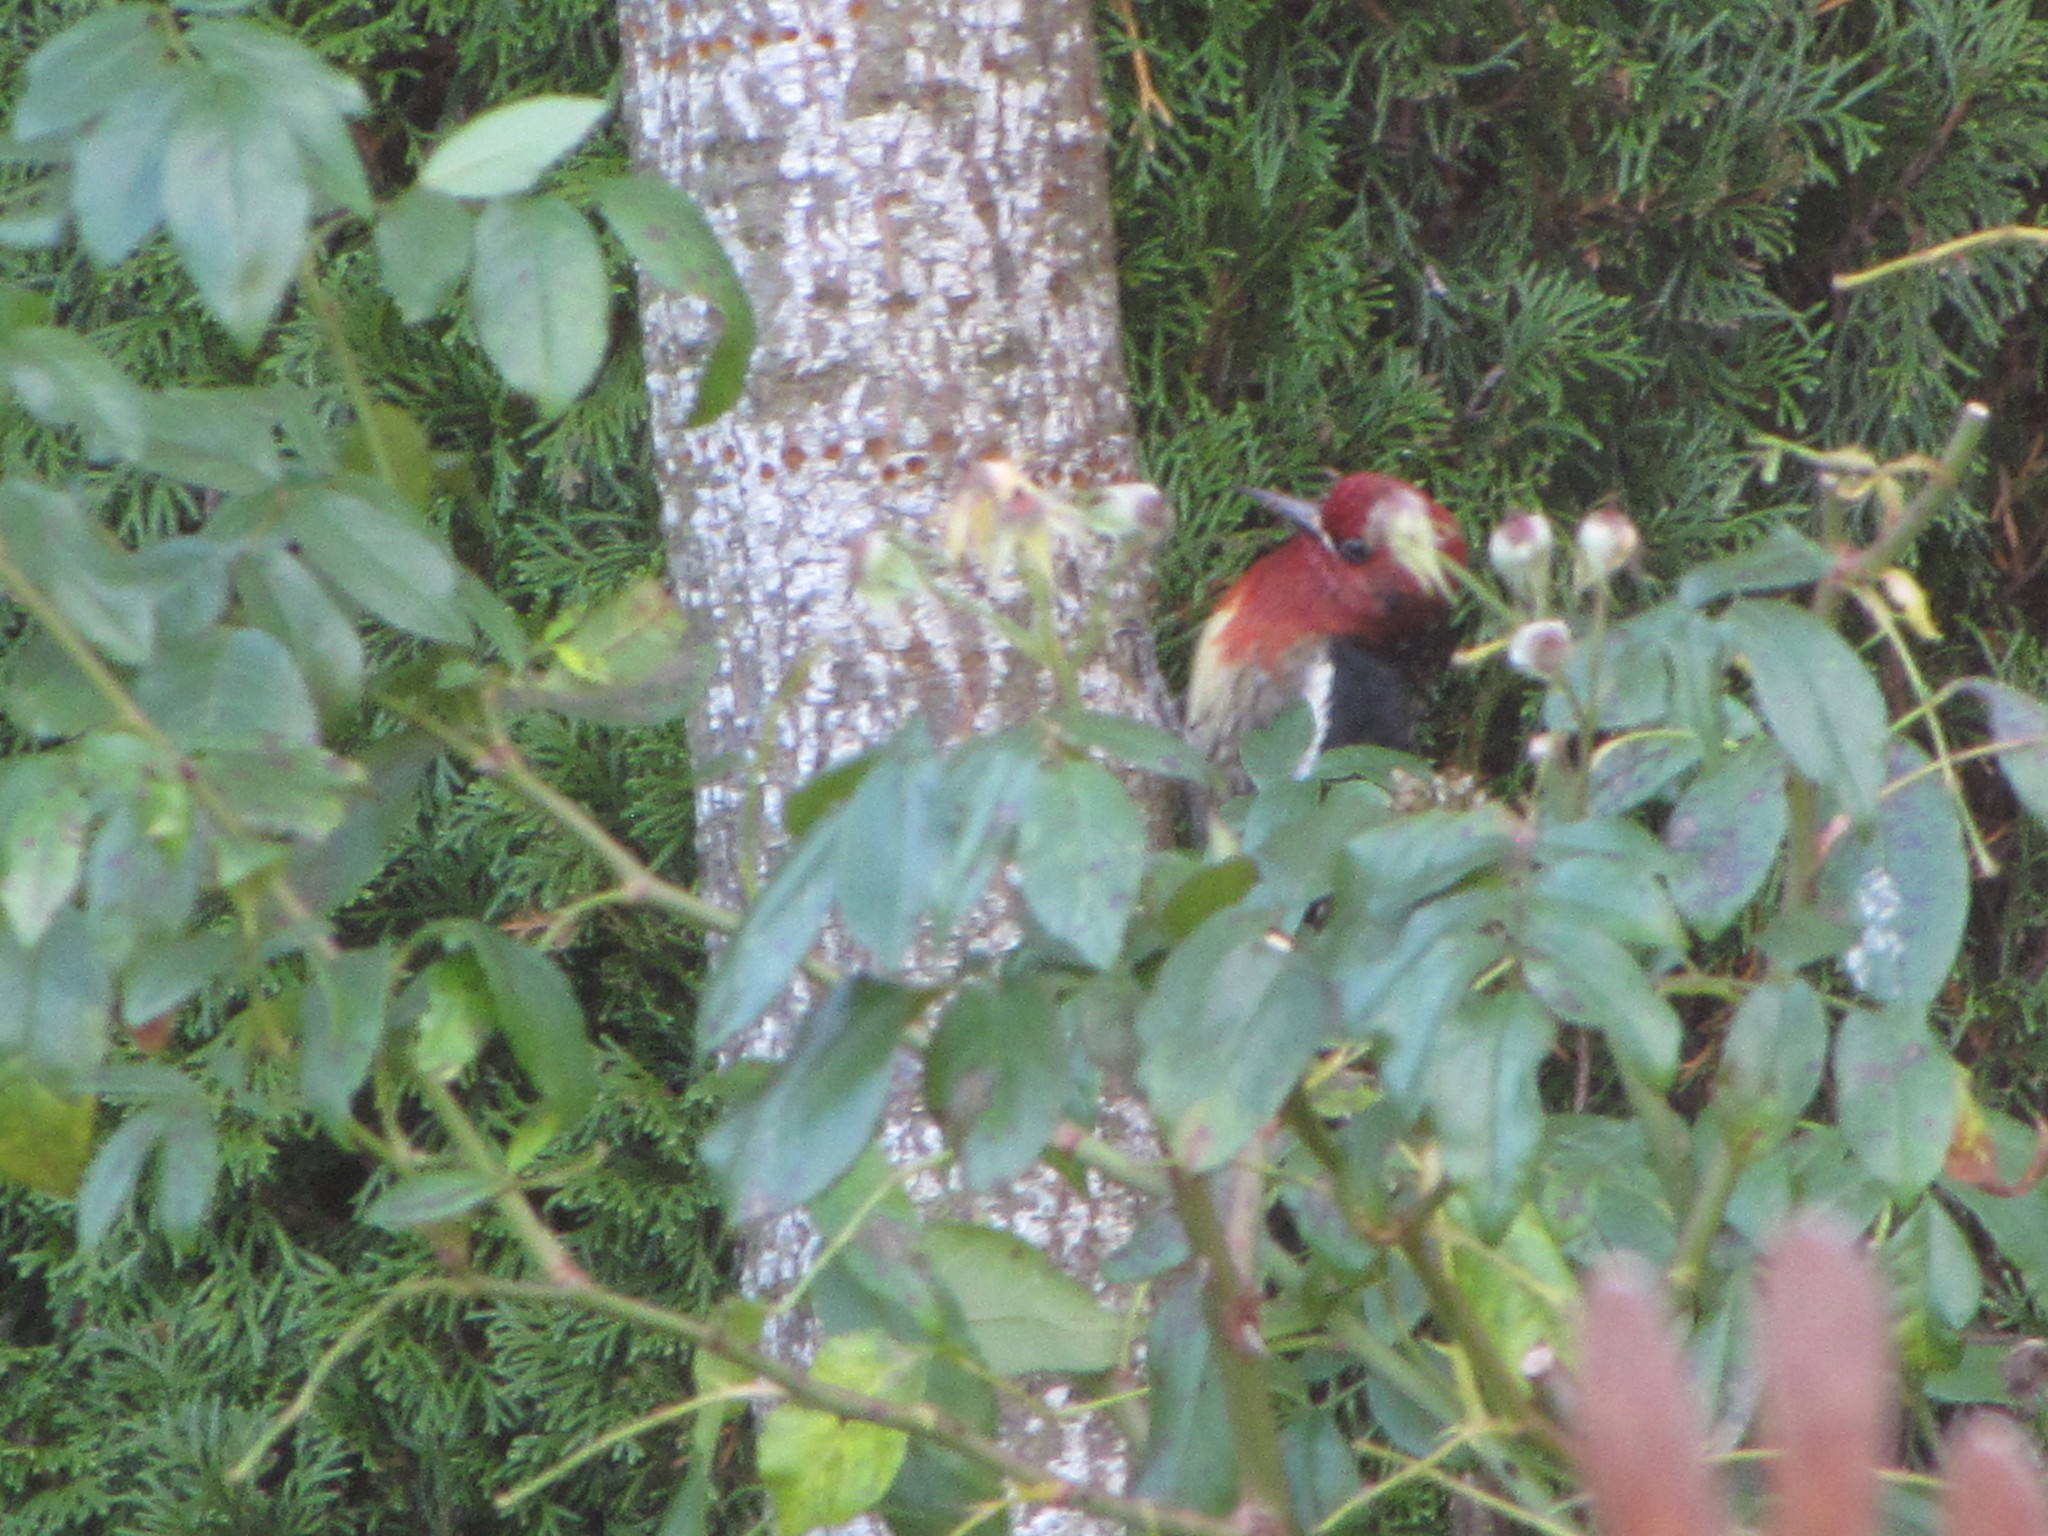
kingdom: Animalia
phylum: Chordata
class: Aves
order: Piciformes
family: Picidae
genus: Sphyrapicus
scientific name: Sphyrapicus ruber
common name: Red-breasted sapsucker
